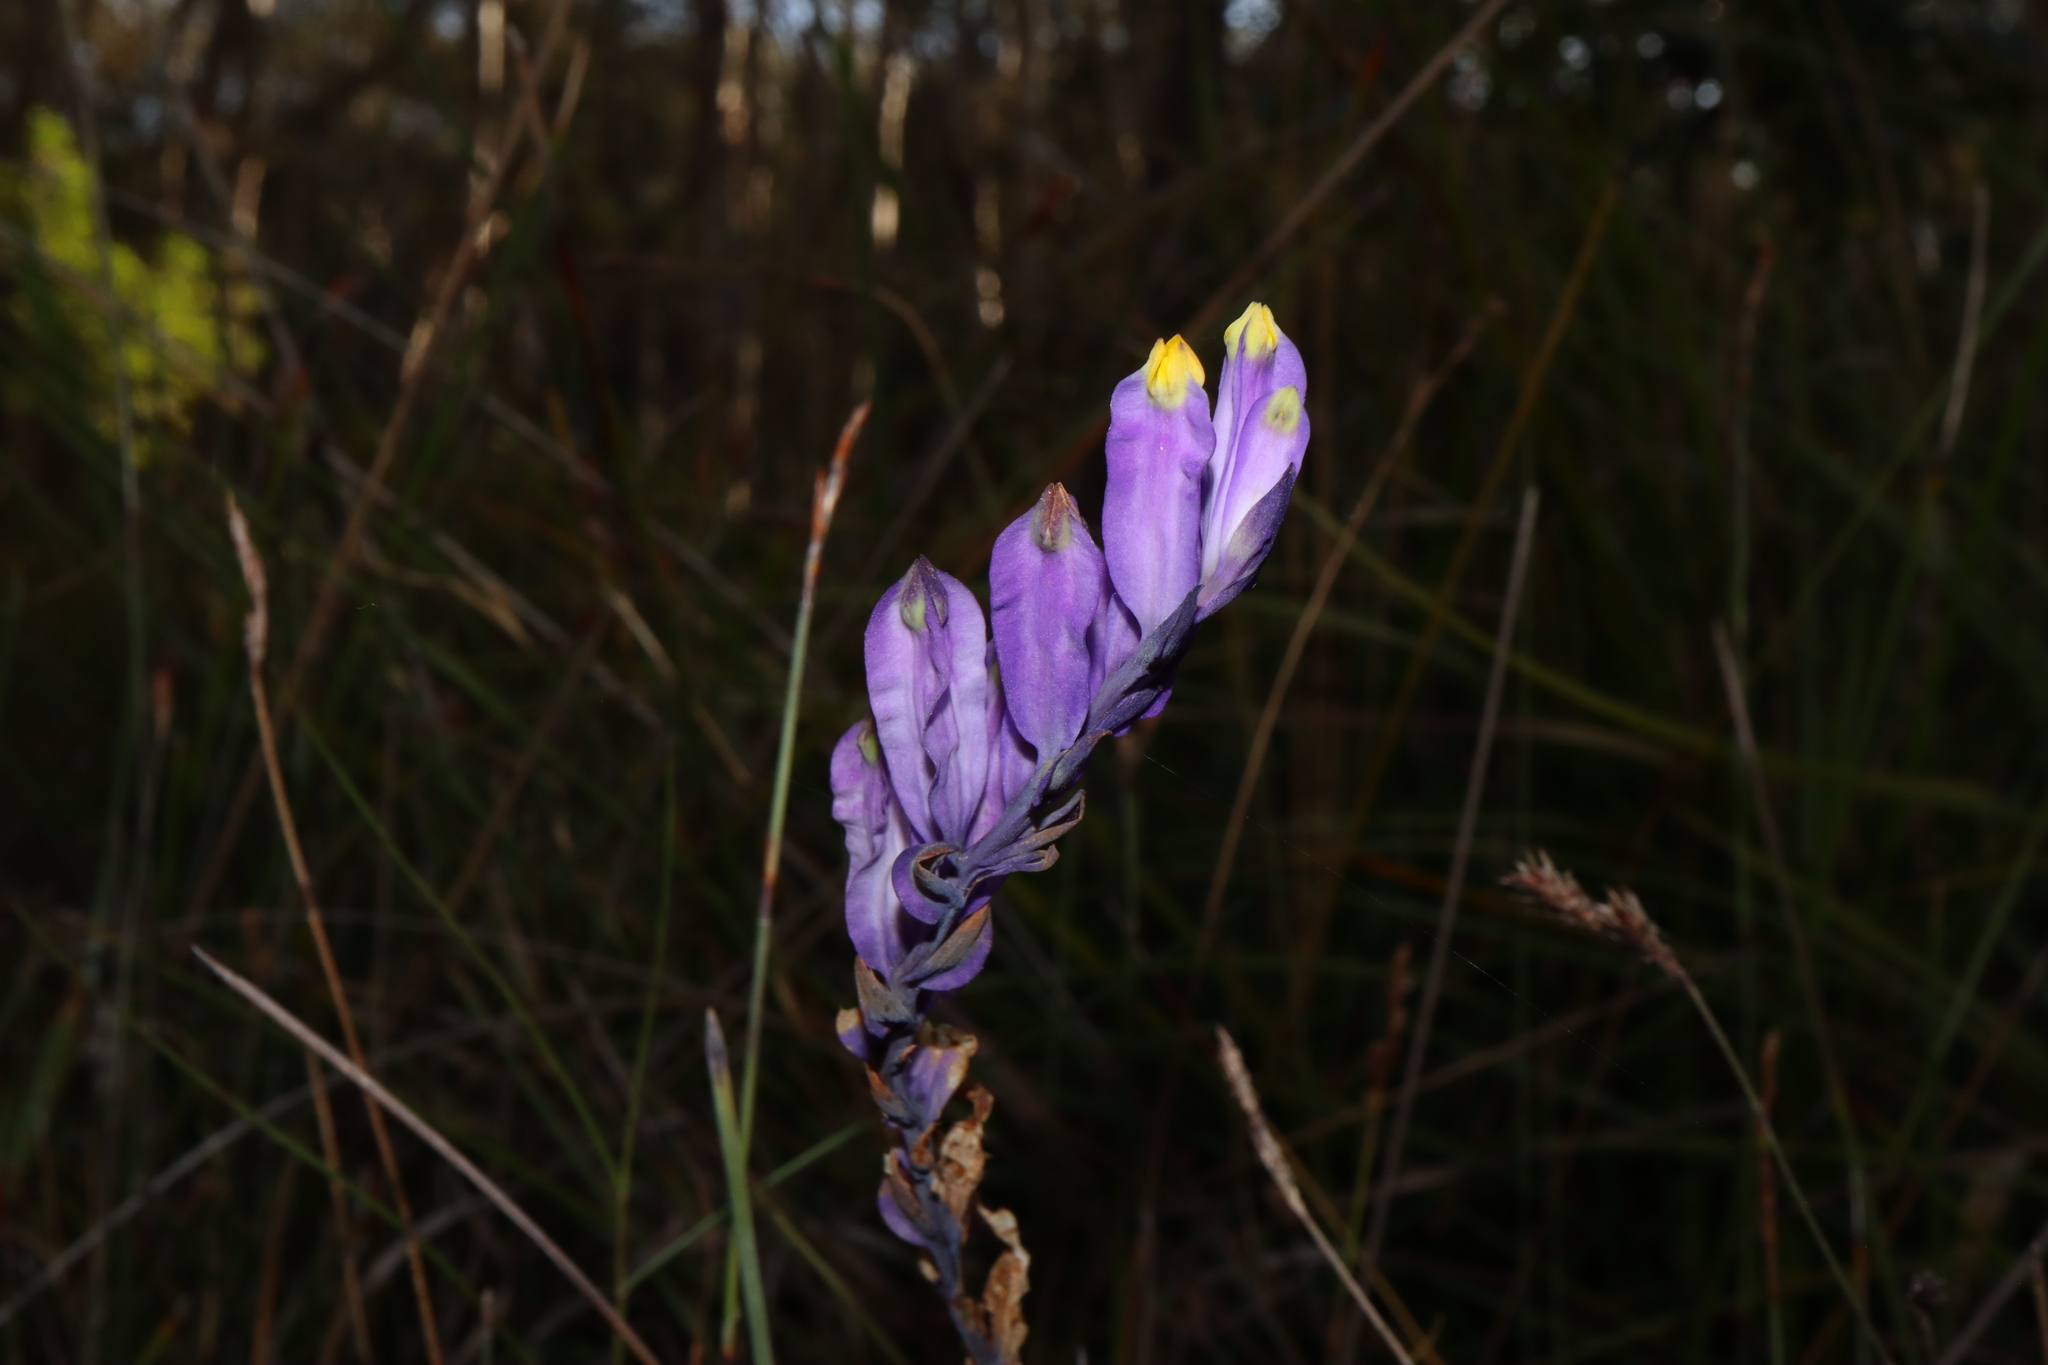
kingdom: Plantae
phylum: Tracheophyta
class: Liliopsida
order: Dioscoreales
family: Burmanniaceae
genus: Burmannia
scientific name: Burmannia disticha
